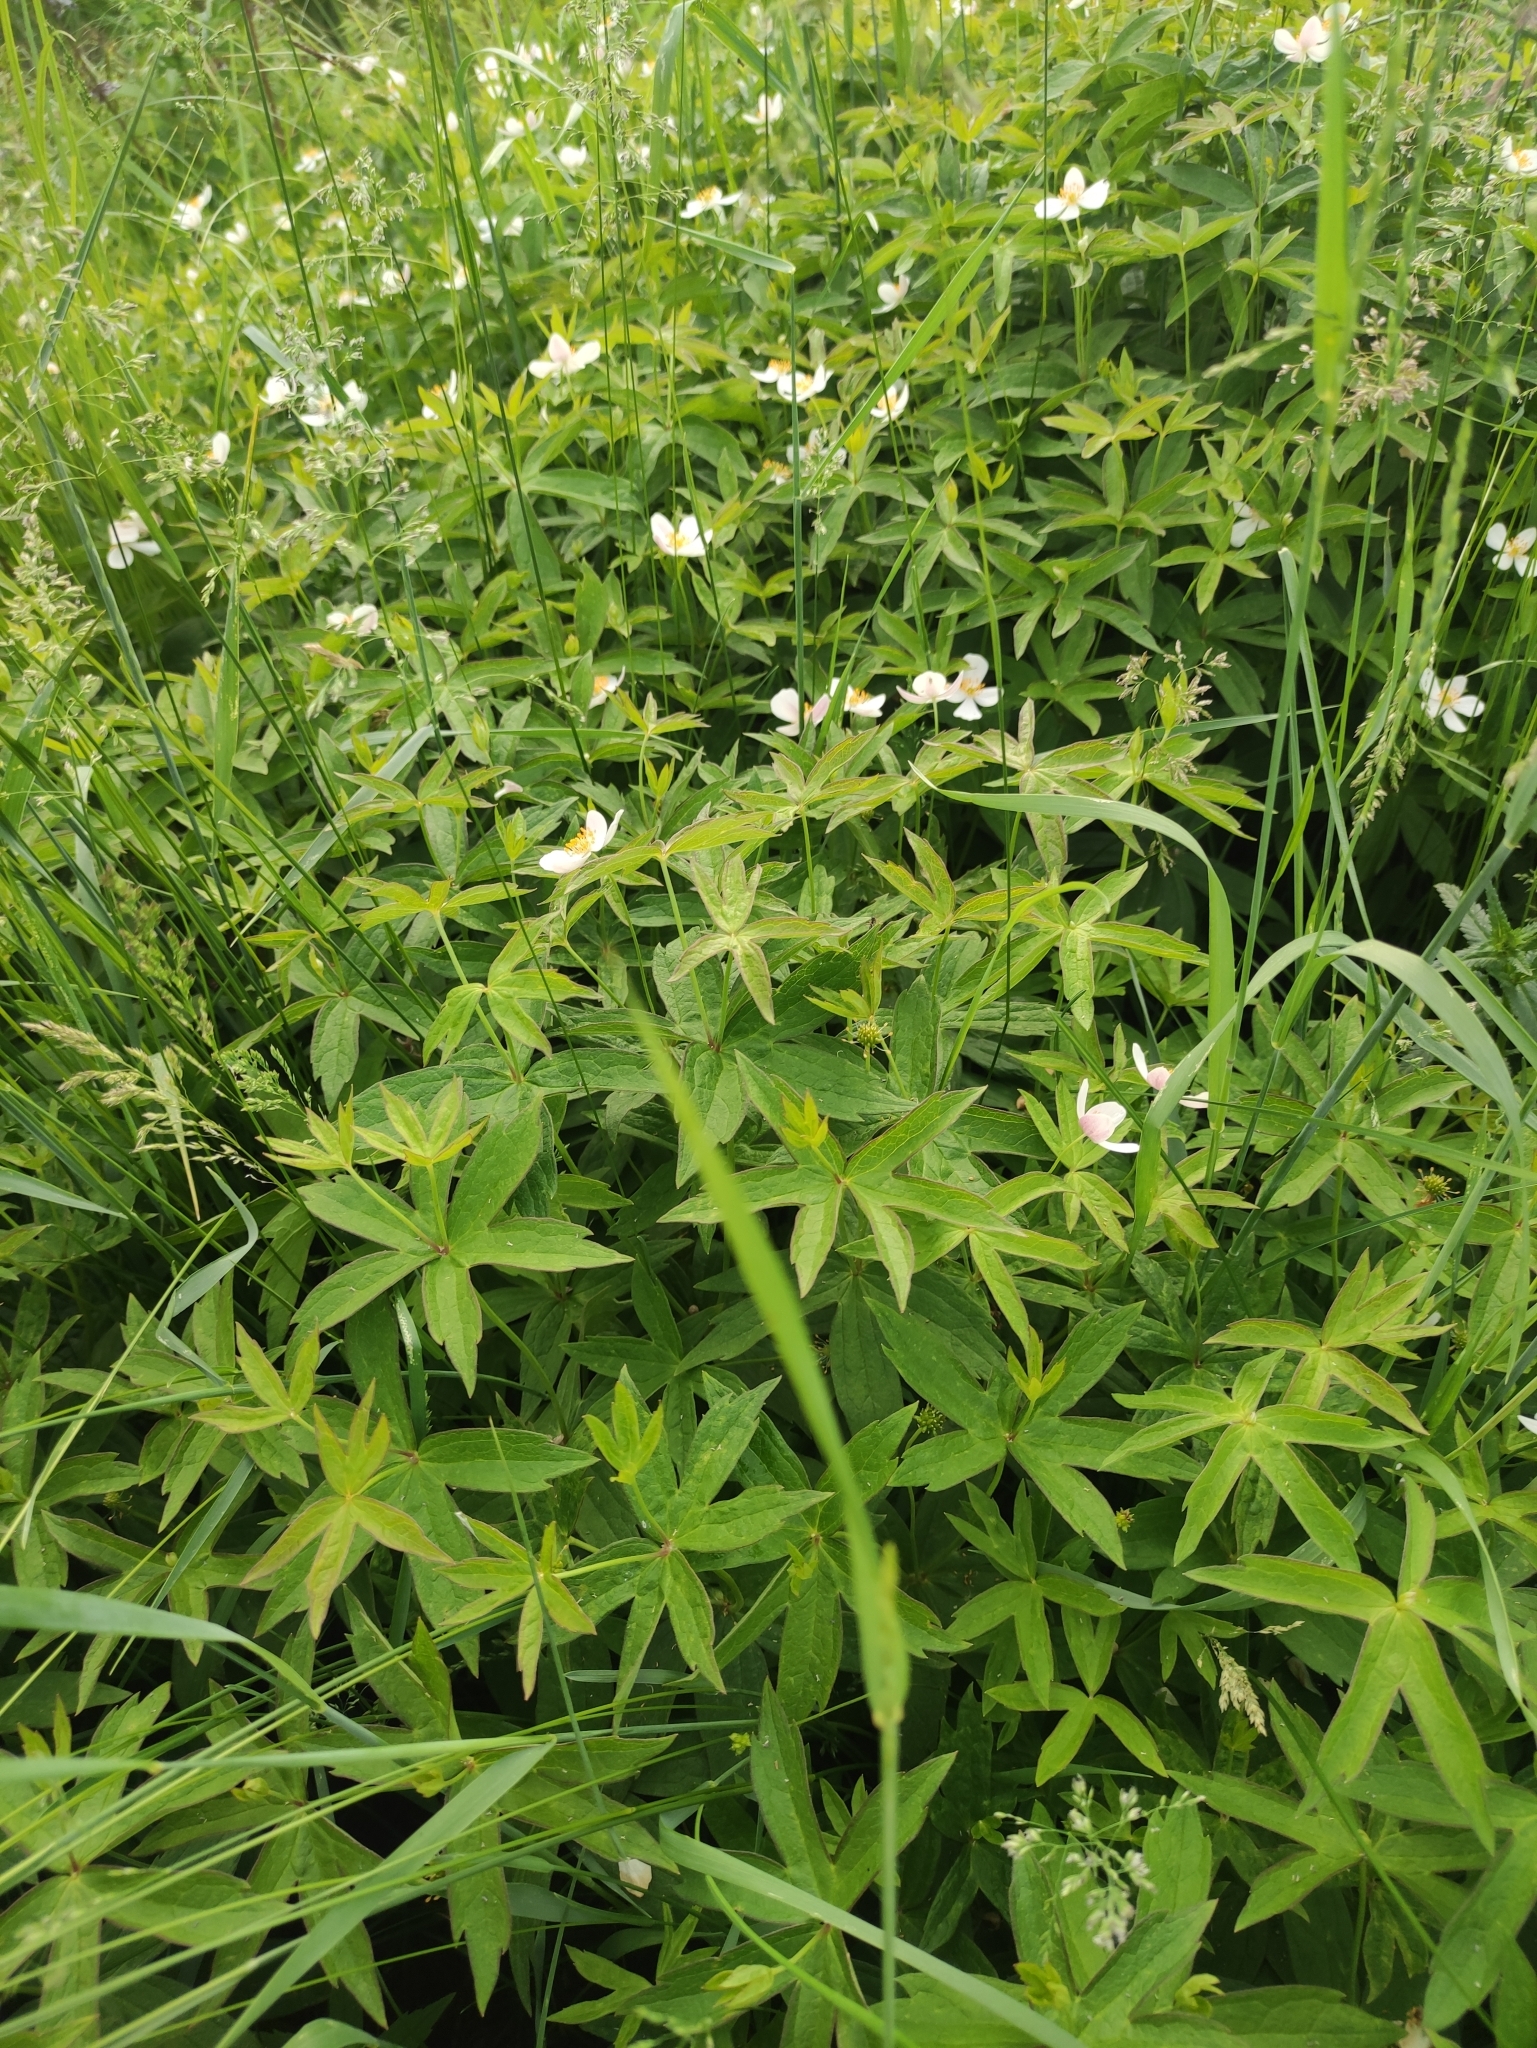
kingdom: Plantae
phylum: Tracheophyta
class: Magnoliopsida
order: Ranunculales
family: Ranunculaceae
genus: Anemonastrum
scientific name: Anemonastrum dichotomum
